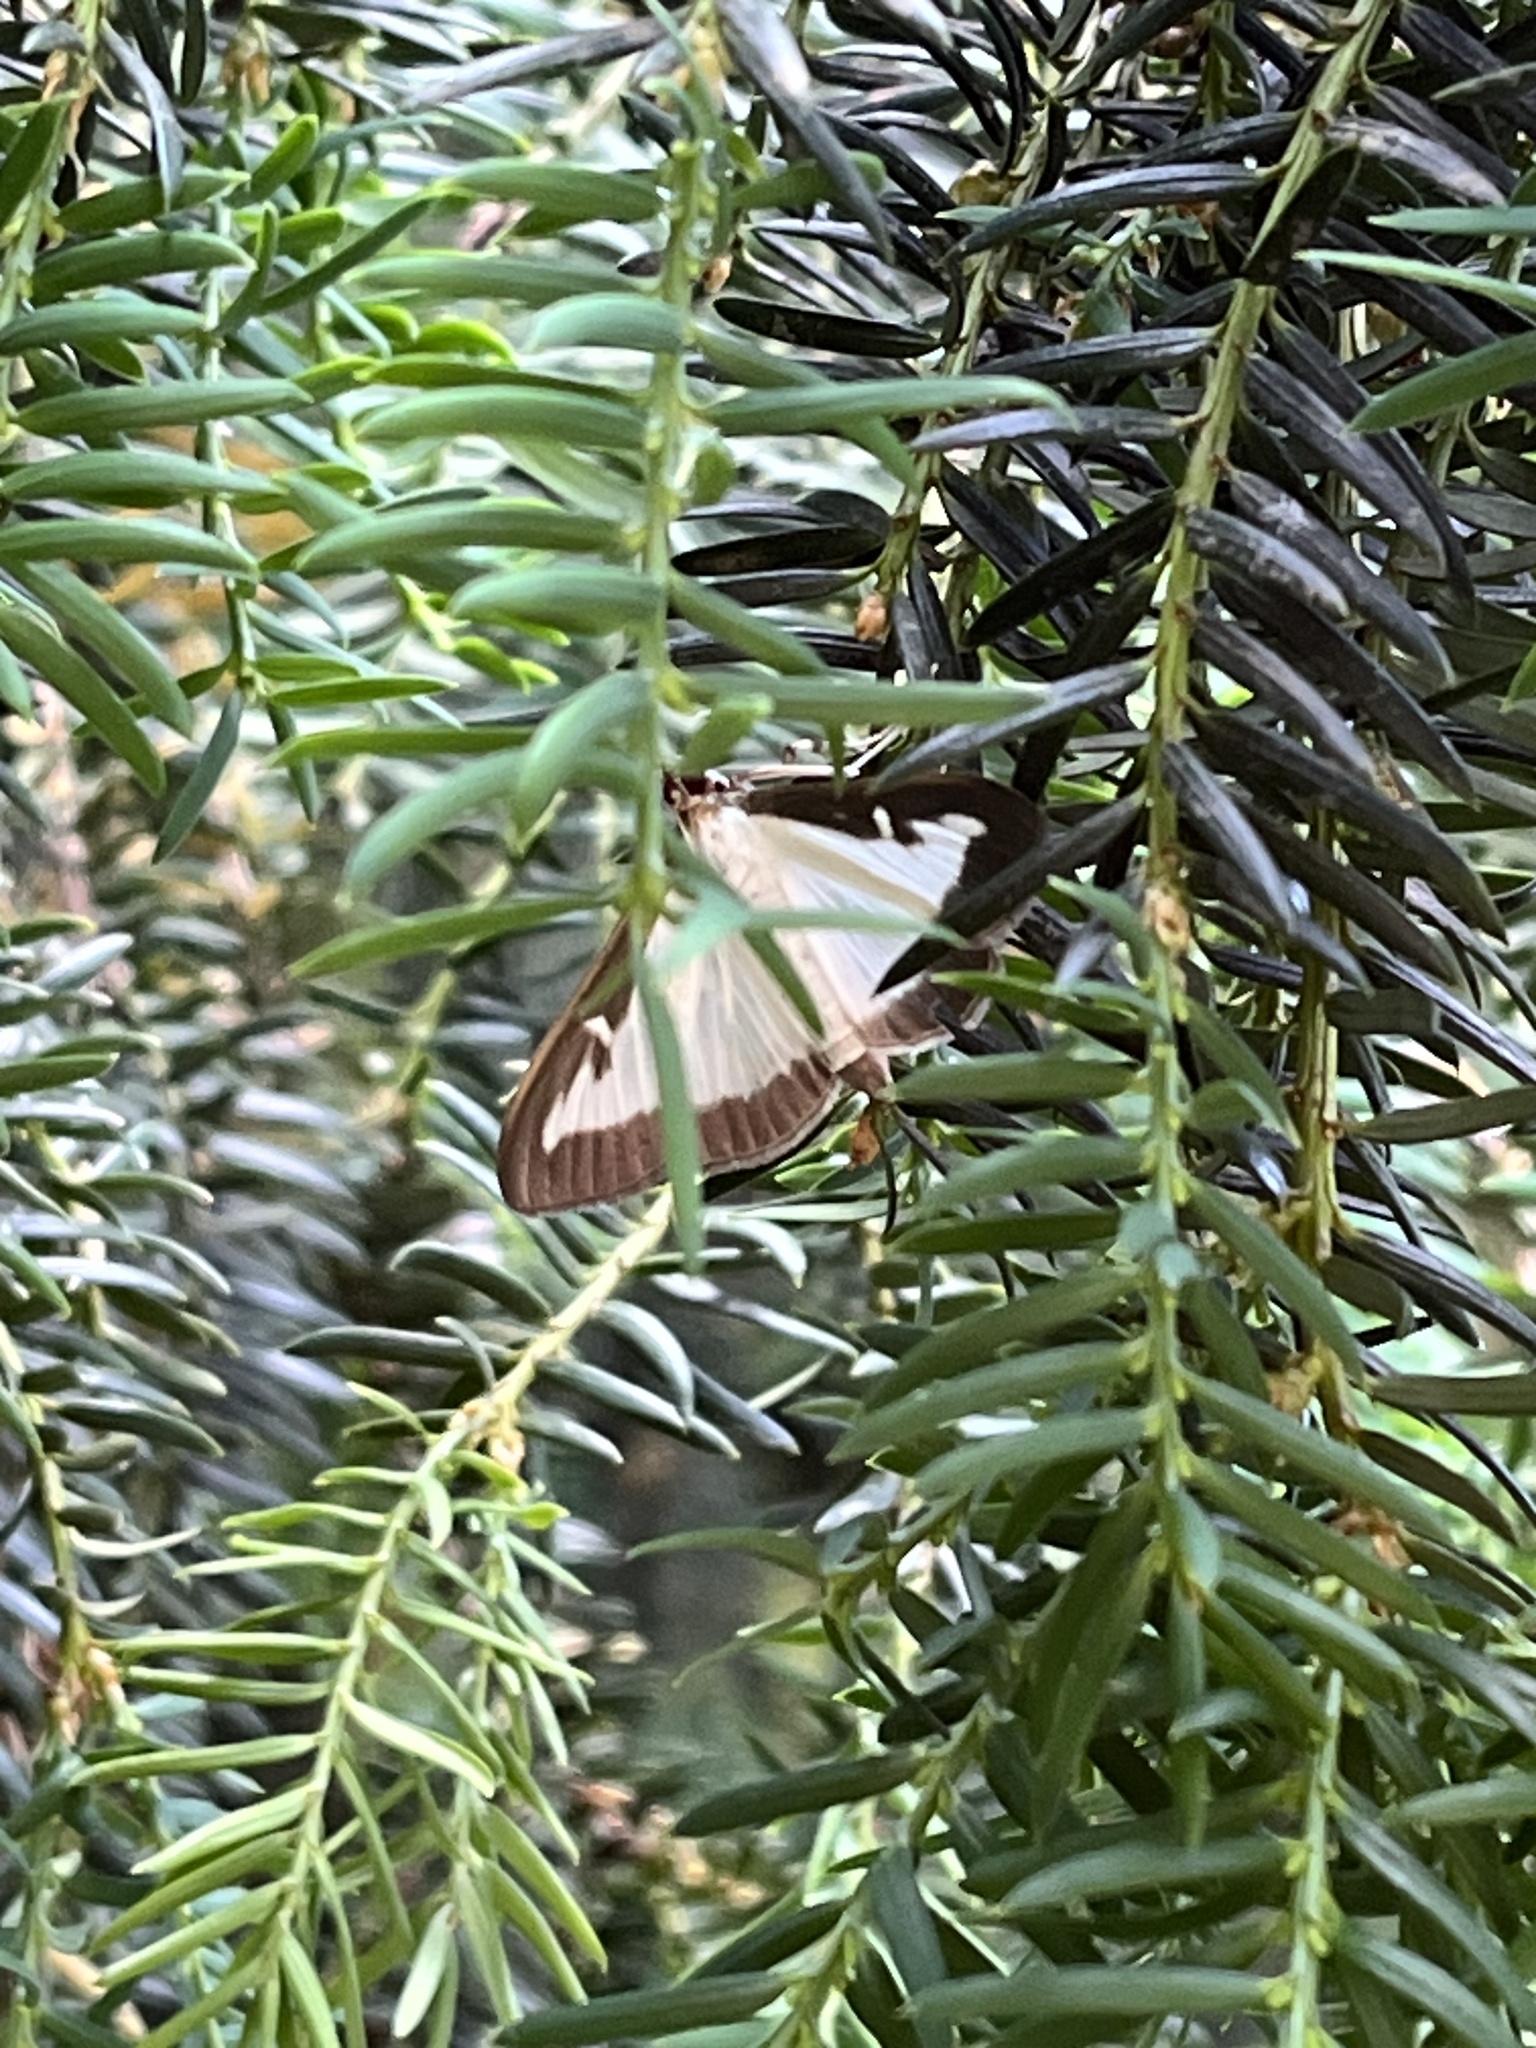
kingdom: Animalia
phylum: Arthropoda
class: Insecta
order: Lepidoptera
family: Crambidae
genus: Cydalima
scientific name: Cydalima perspectalis
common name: Box tree moth
